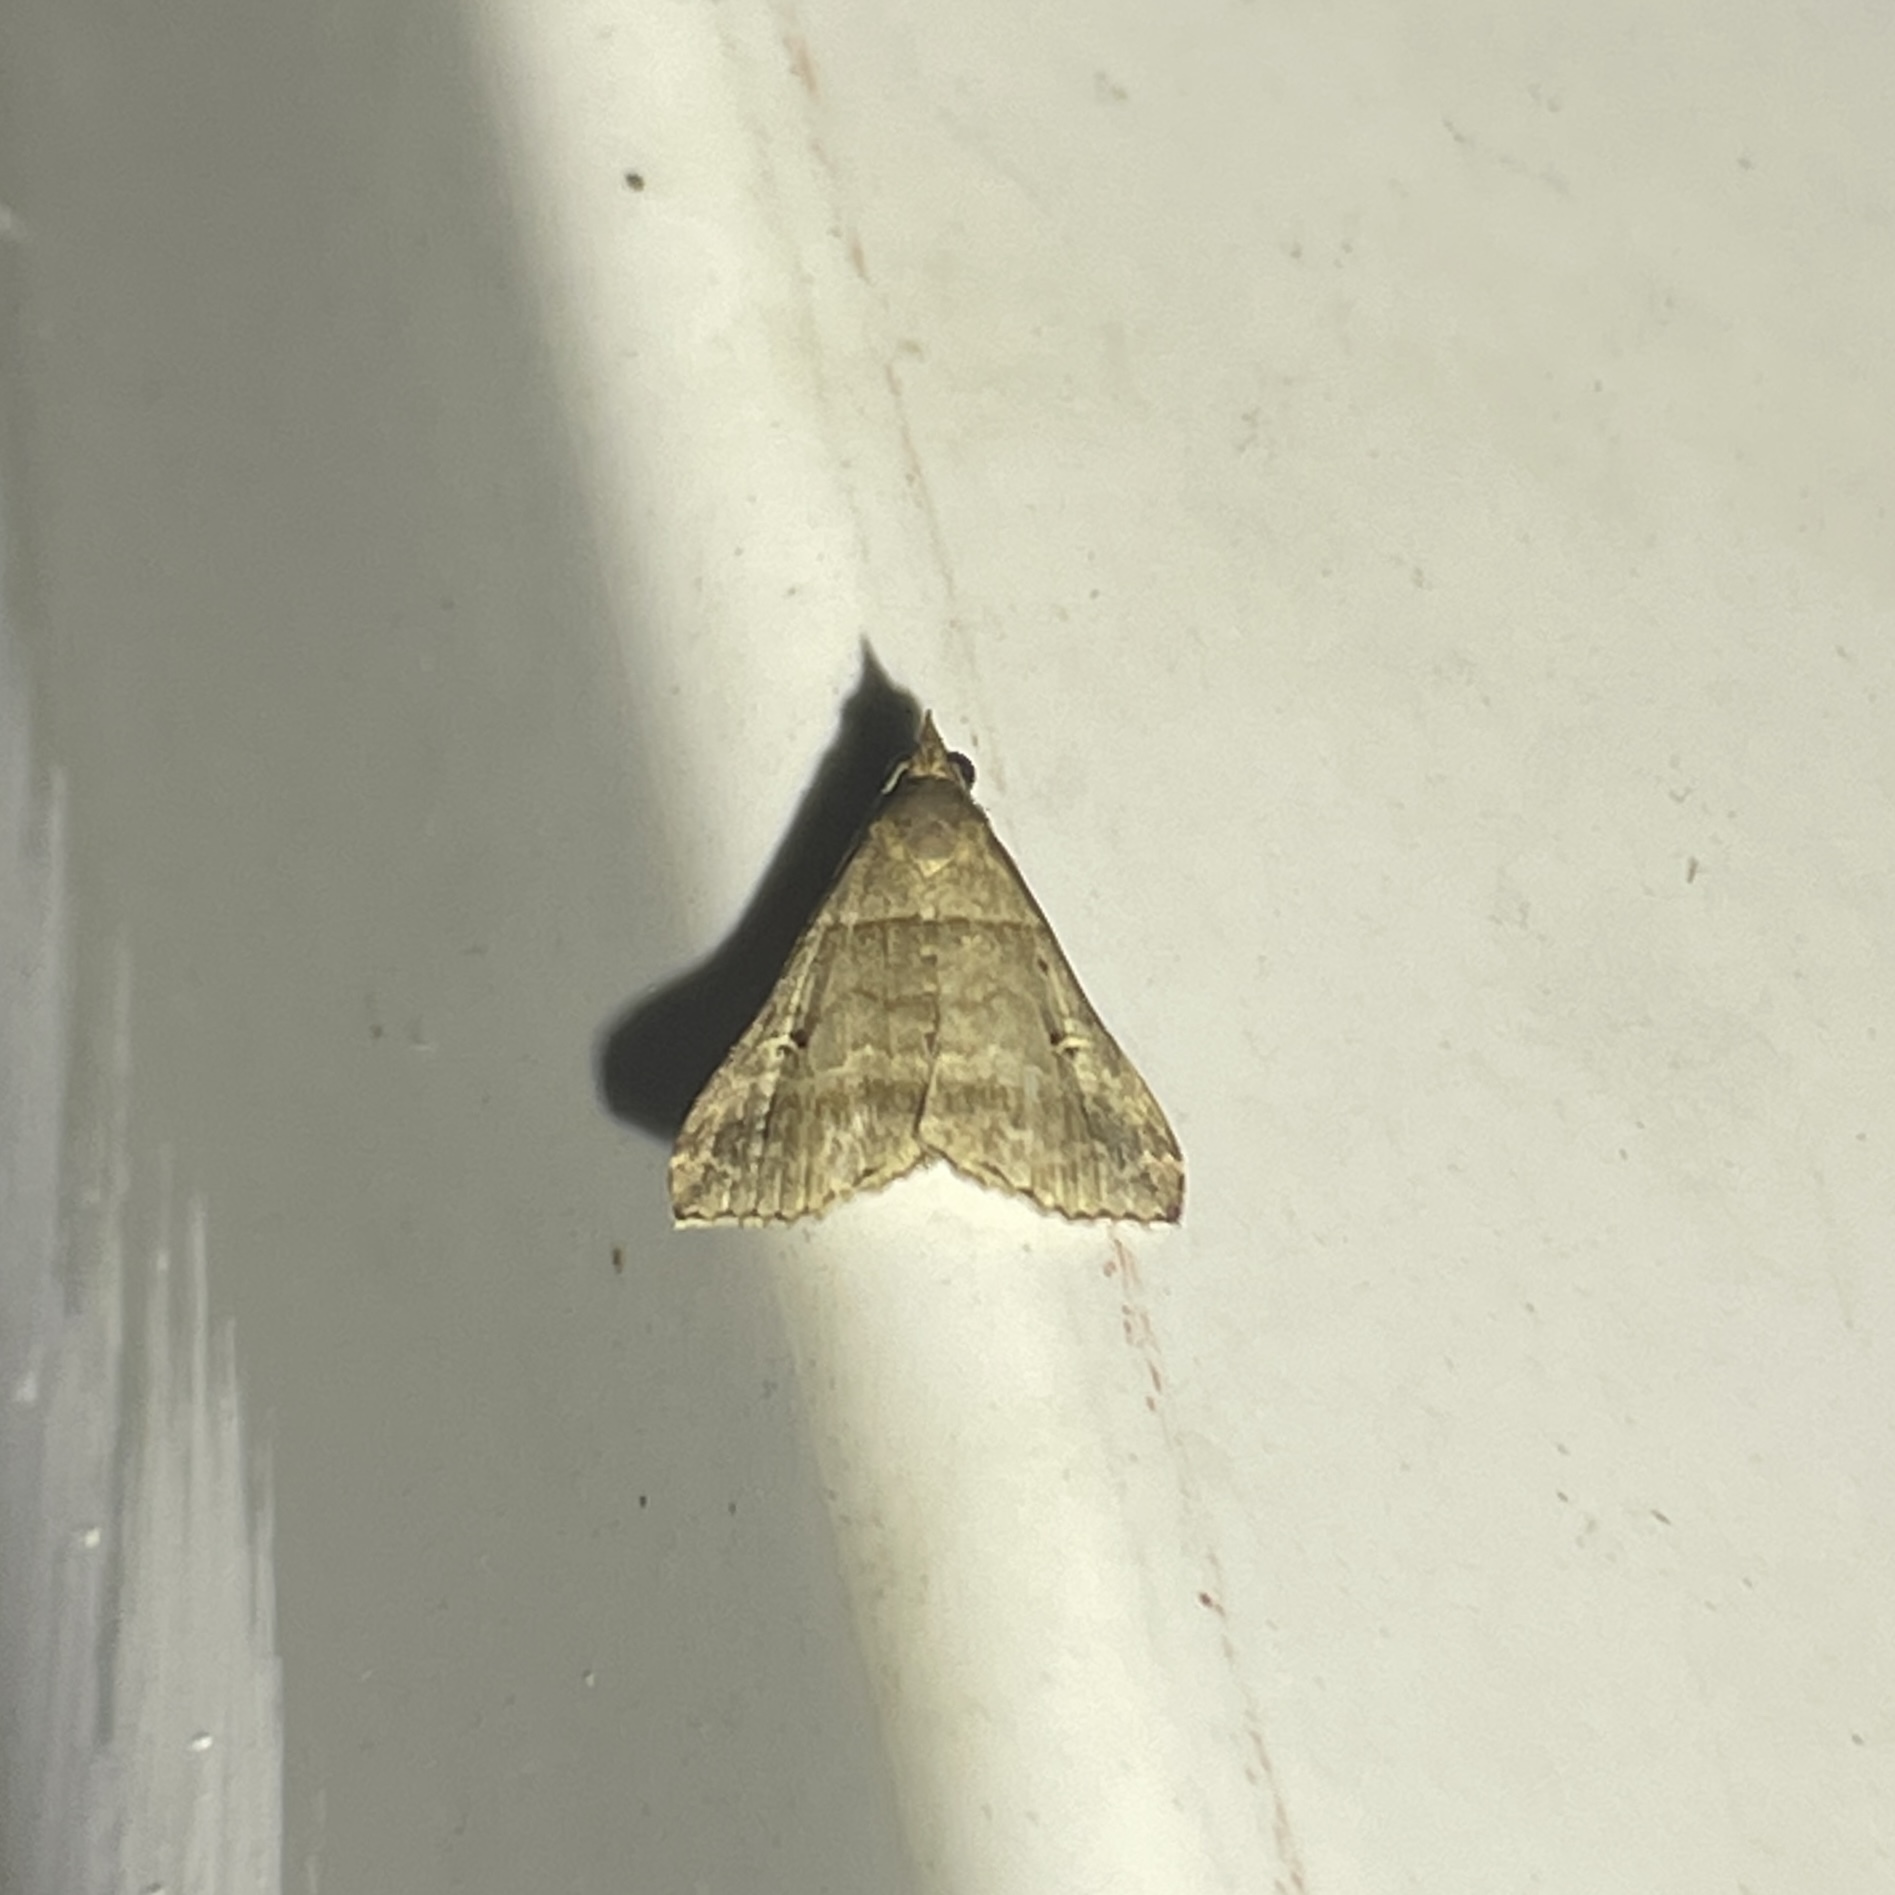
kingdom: Animalia
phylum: Arthropoda
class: Insecta
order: Lepidoptera
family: Erebidae
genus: Heterogramma
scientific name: Heterogramma circumflexalis
